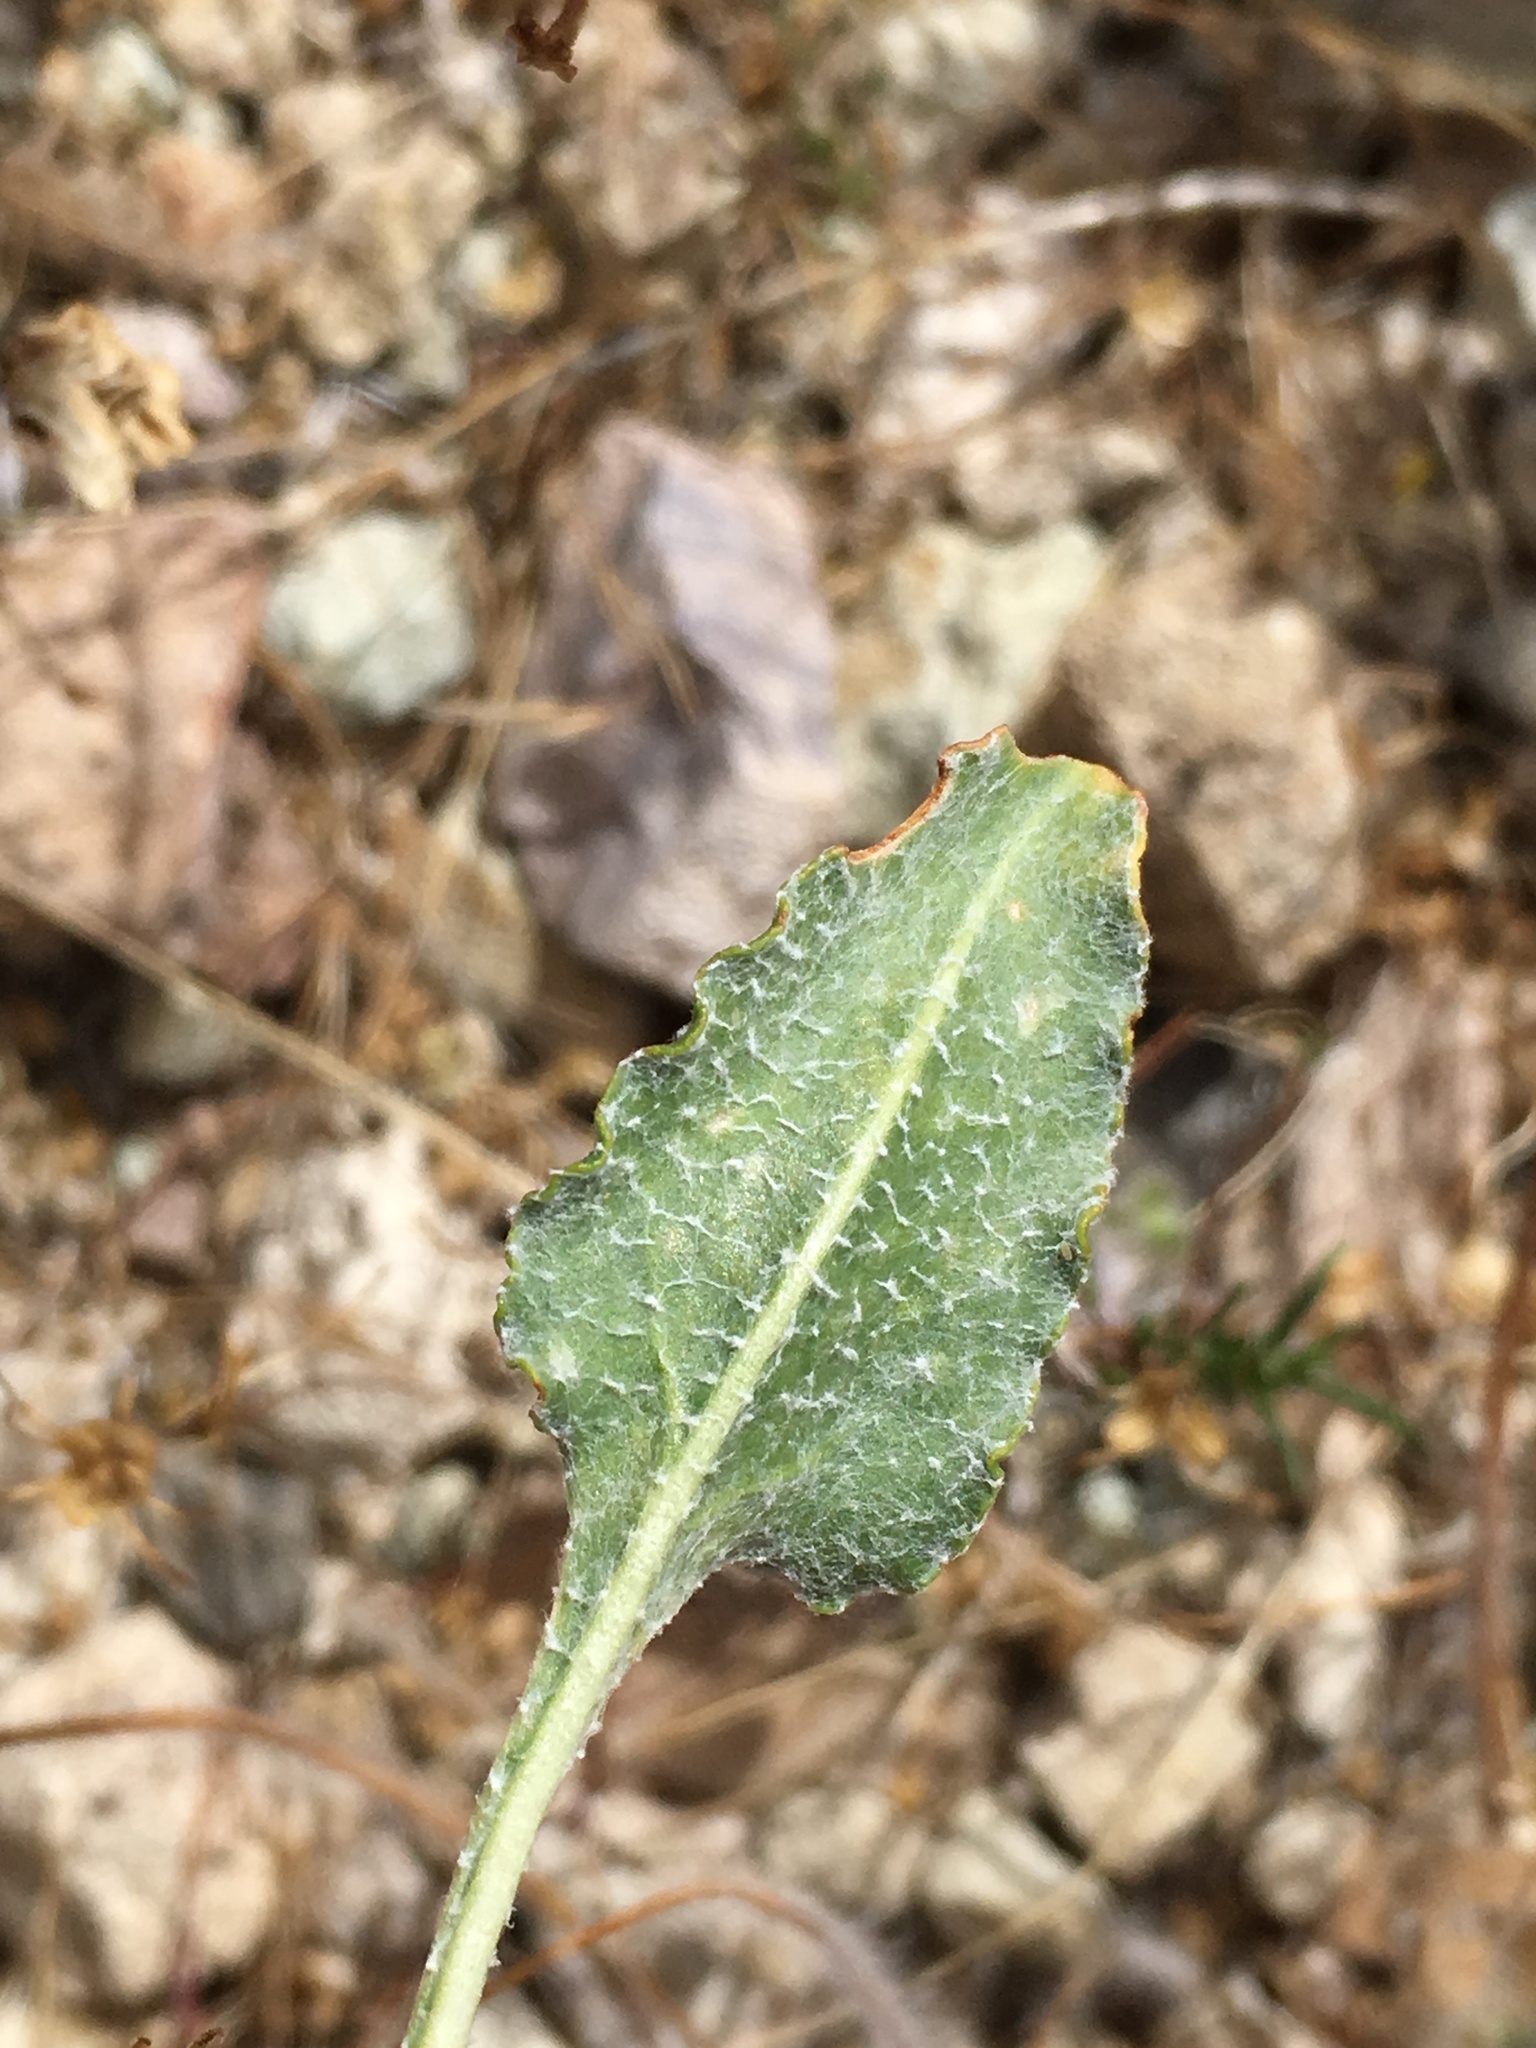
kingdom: Plantae
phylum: Tracheophyta
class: Magnoliopsida
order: Caryophyllales
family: Polygonaceae
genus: Eriogonum
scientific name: Eriogonum nudum
